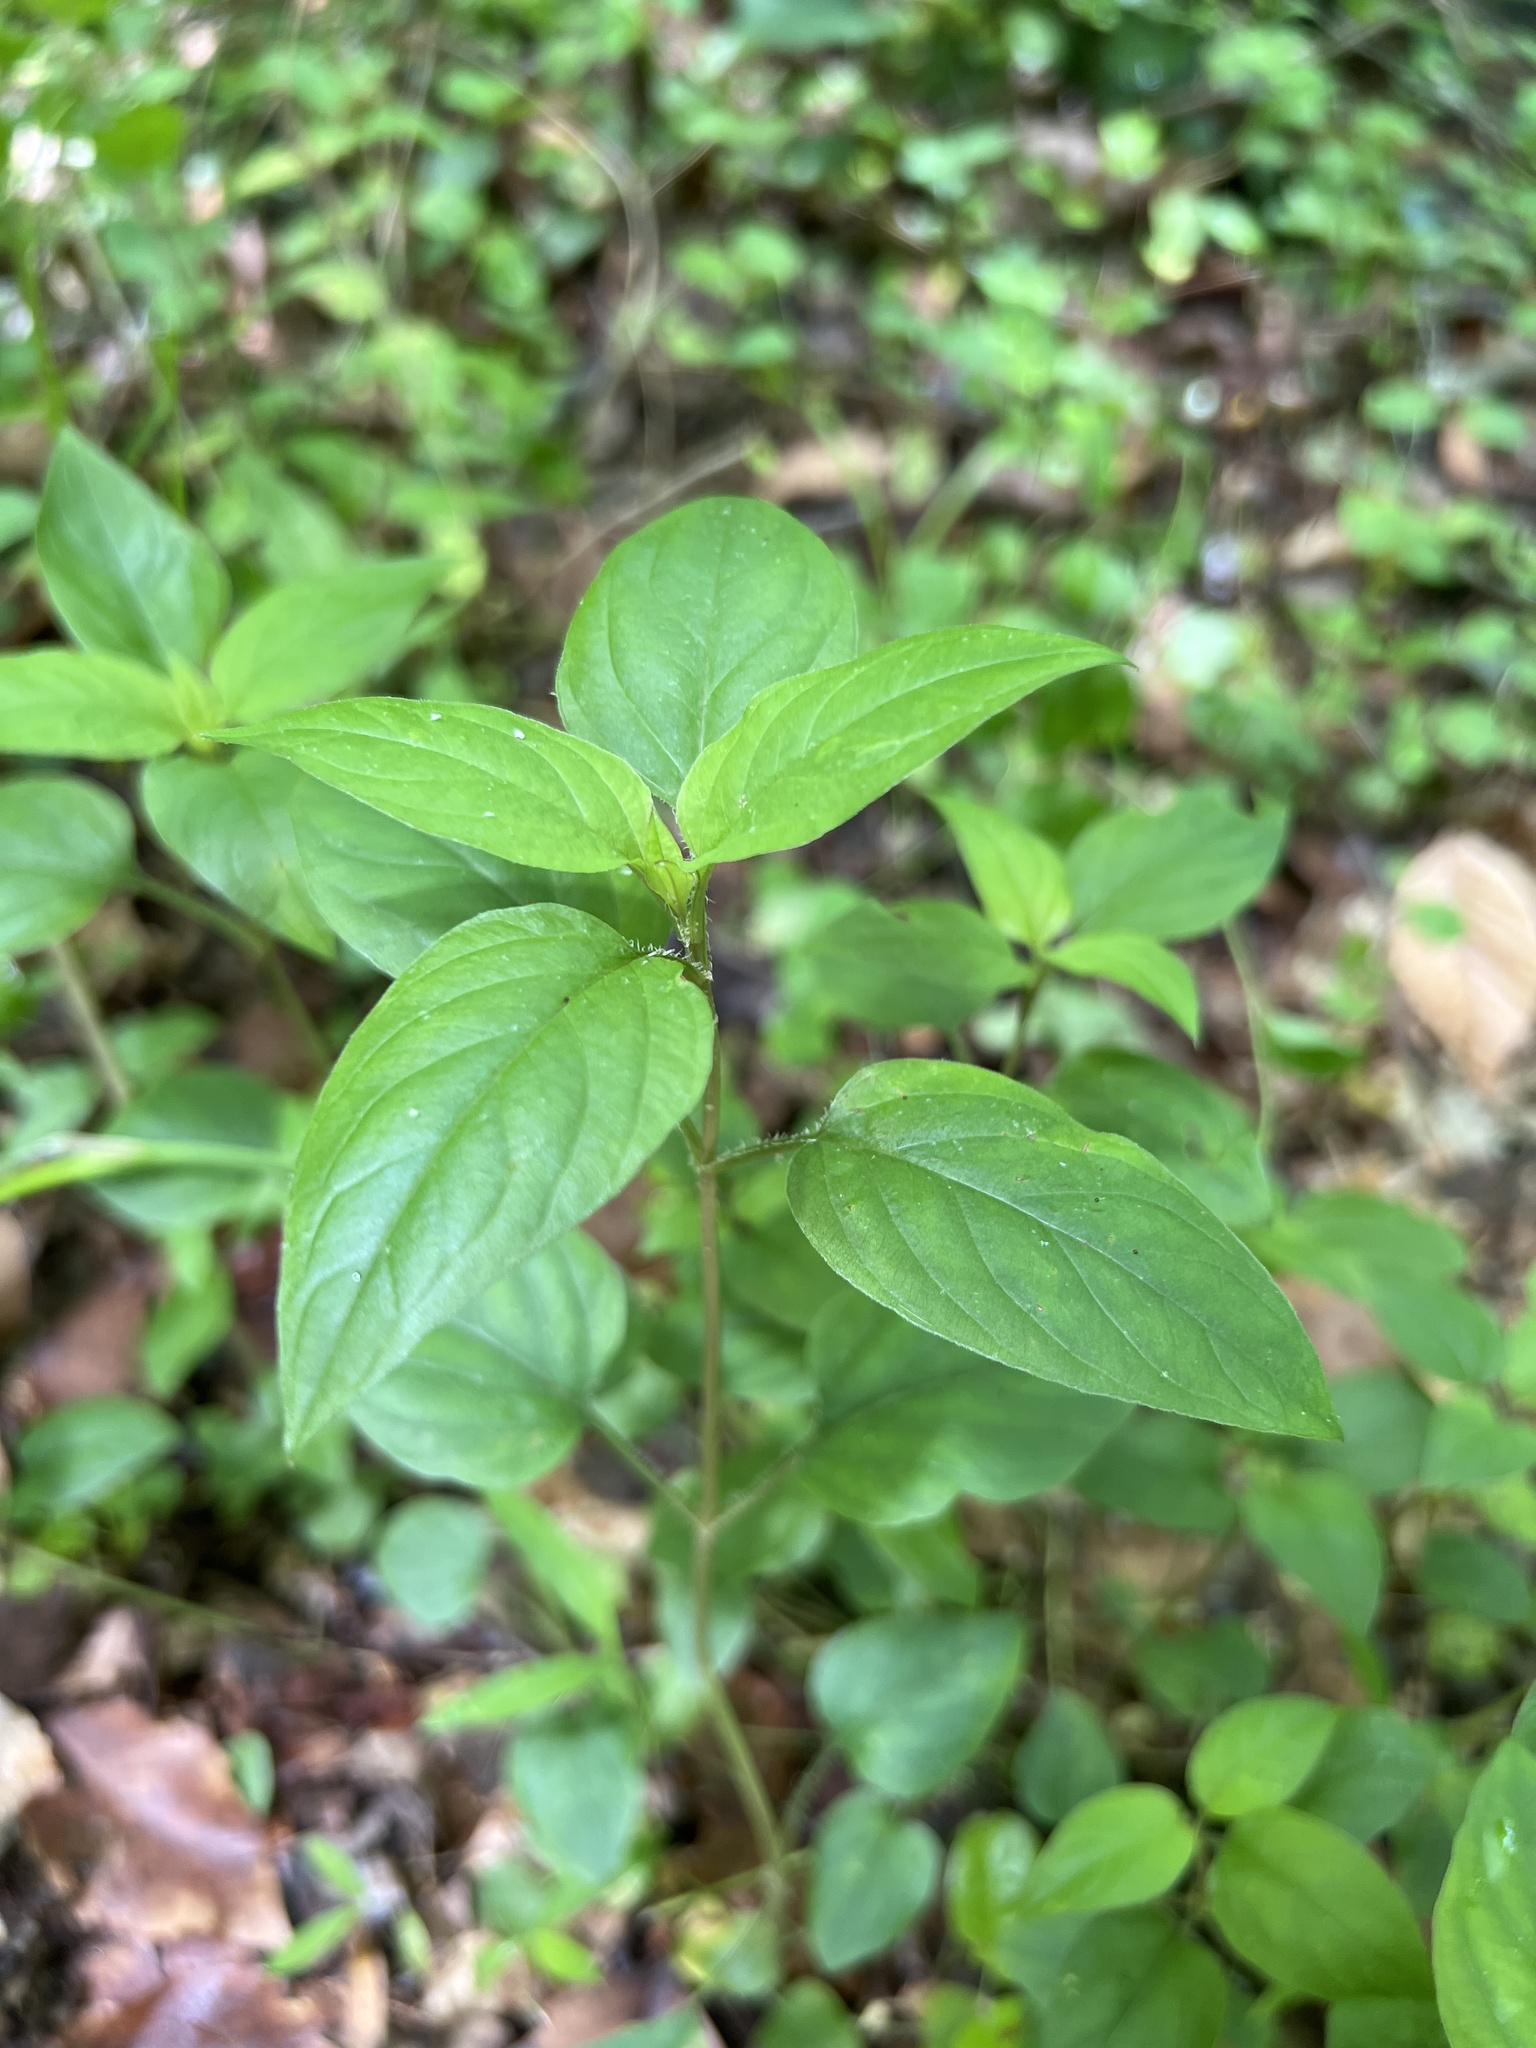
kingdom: Plantae
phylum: Tracheophyta
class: Magnoliopsida
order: Ericales
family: Primulaceae
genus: Lysimachia
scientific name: Lysimachia ciliata
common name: Fringed loosestrife
